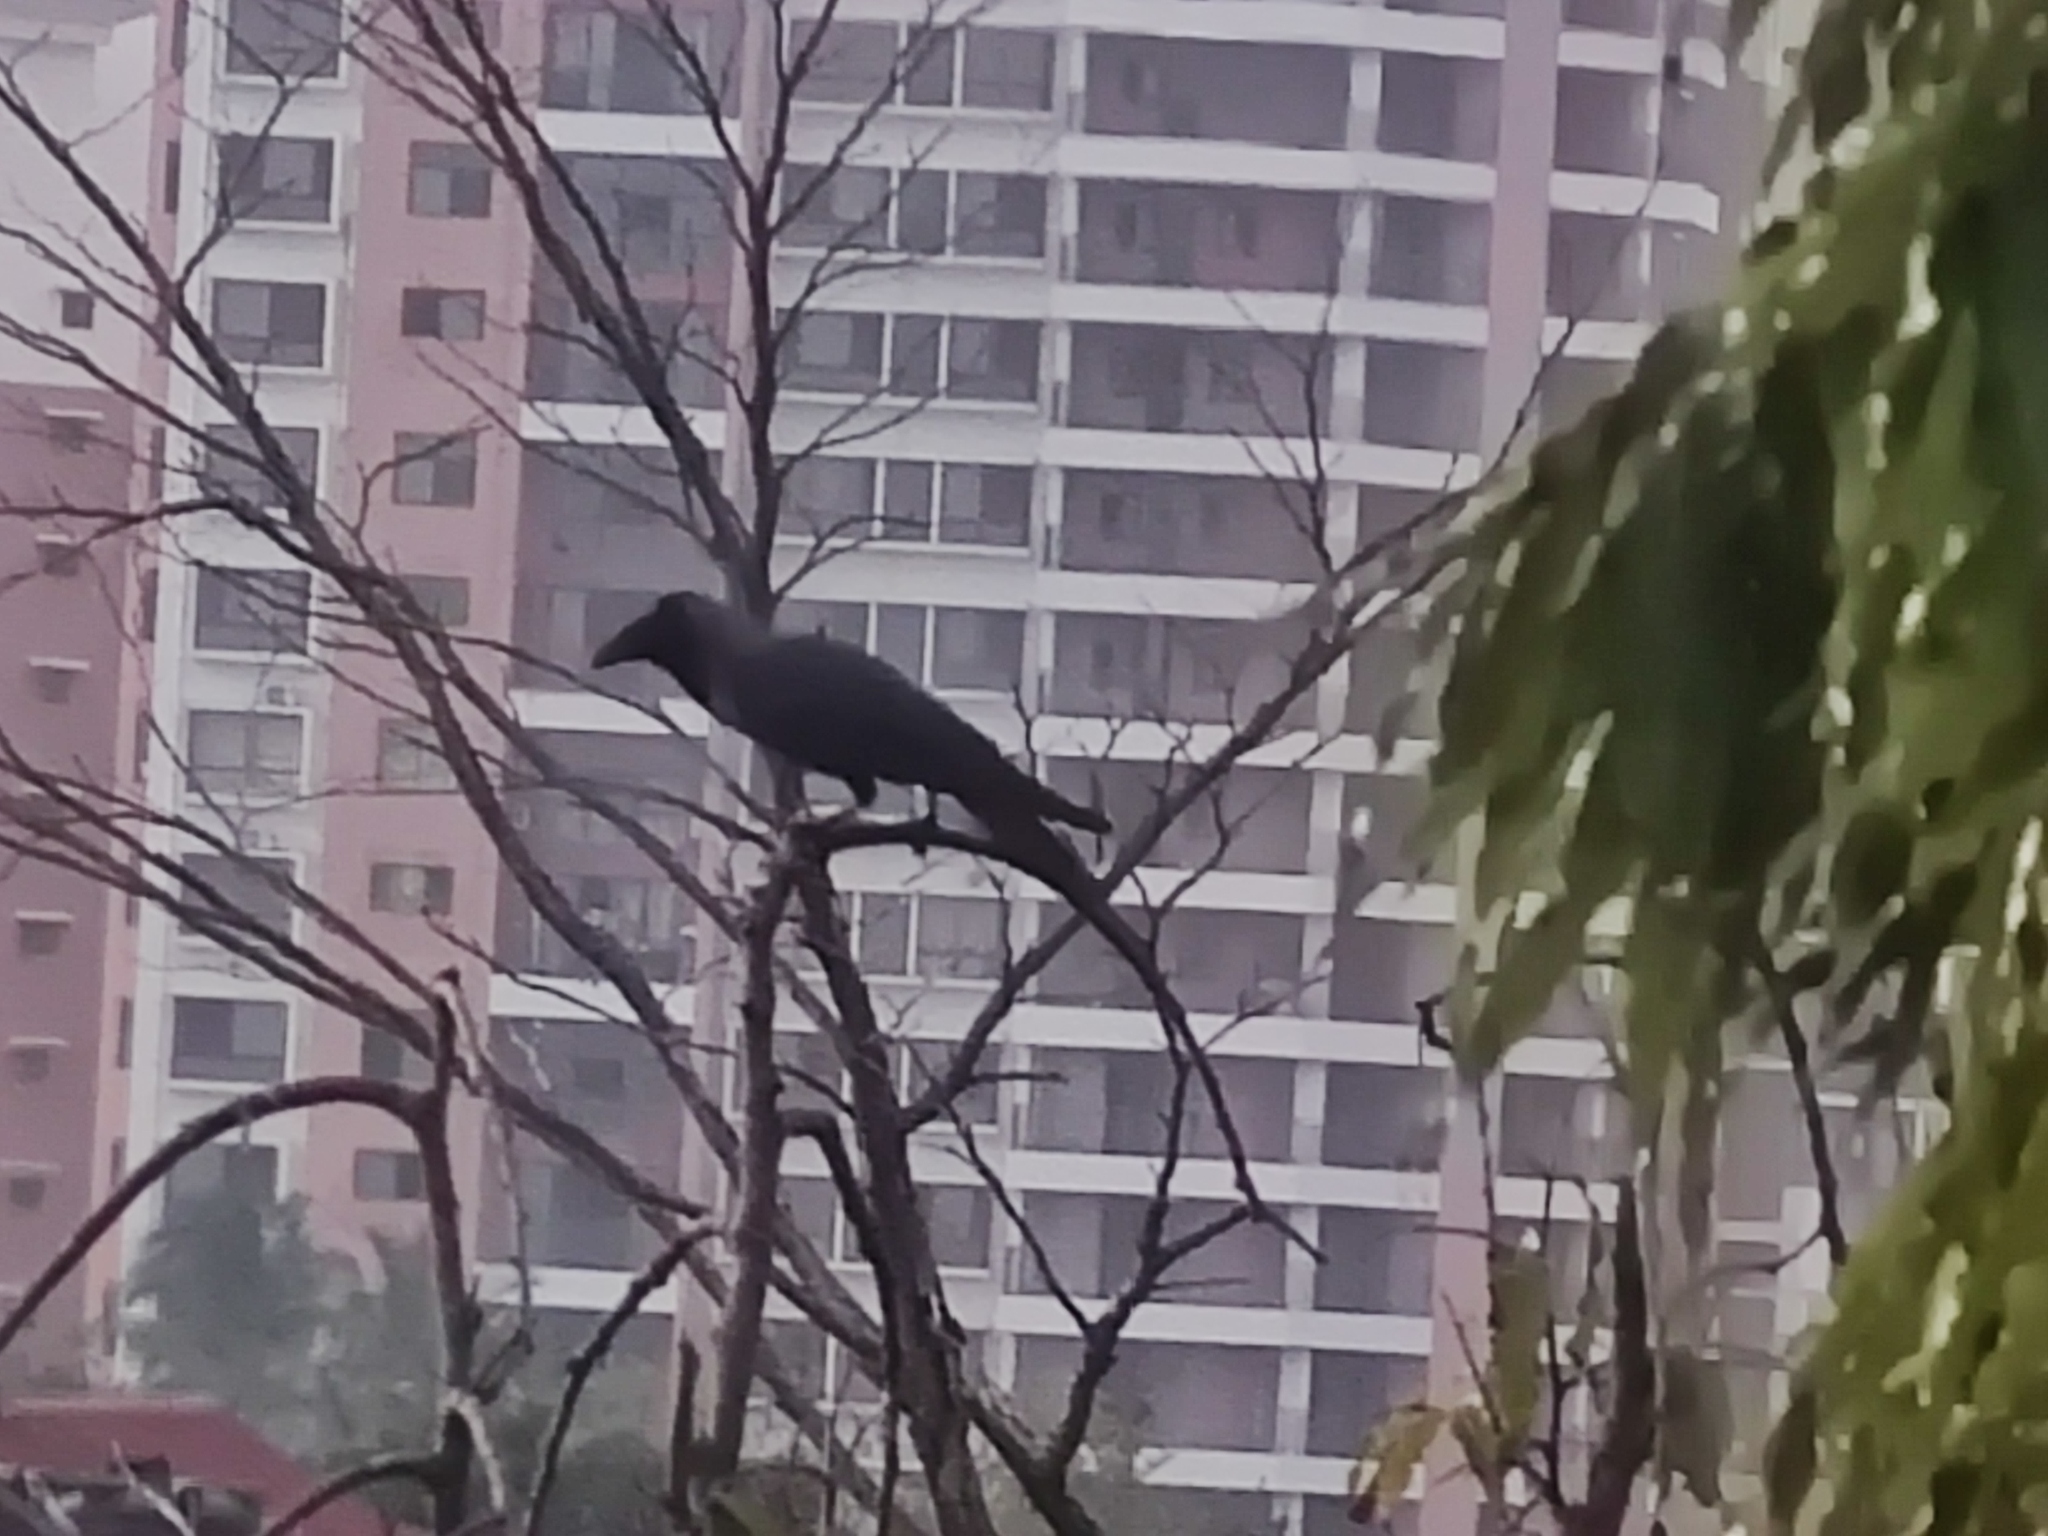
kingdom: Animalia
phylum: Chordata
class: Aves
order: Passeriformes
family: Corvidae
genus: Corvus
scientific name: Corvus splendens
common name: House crow
